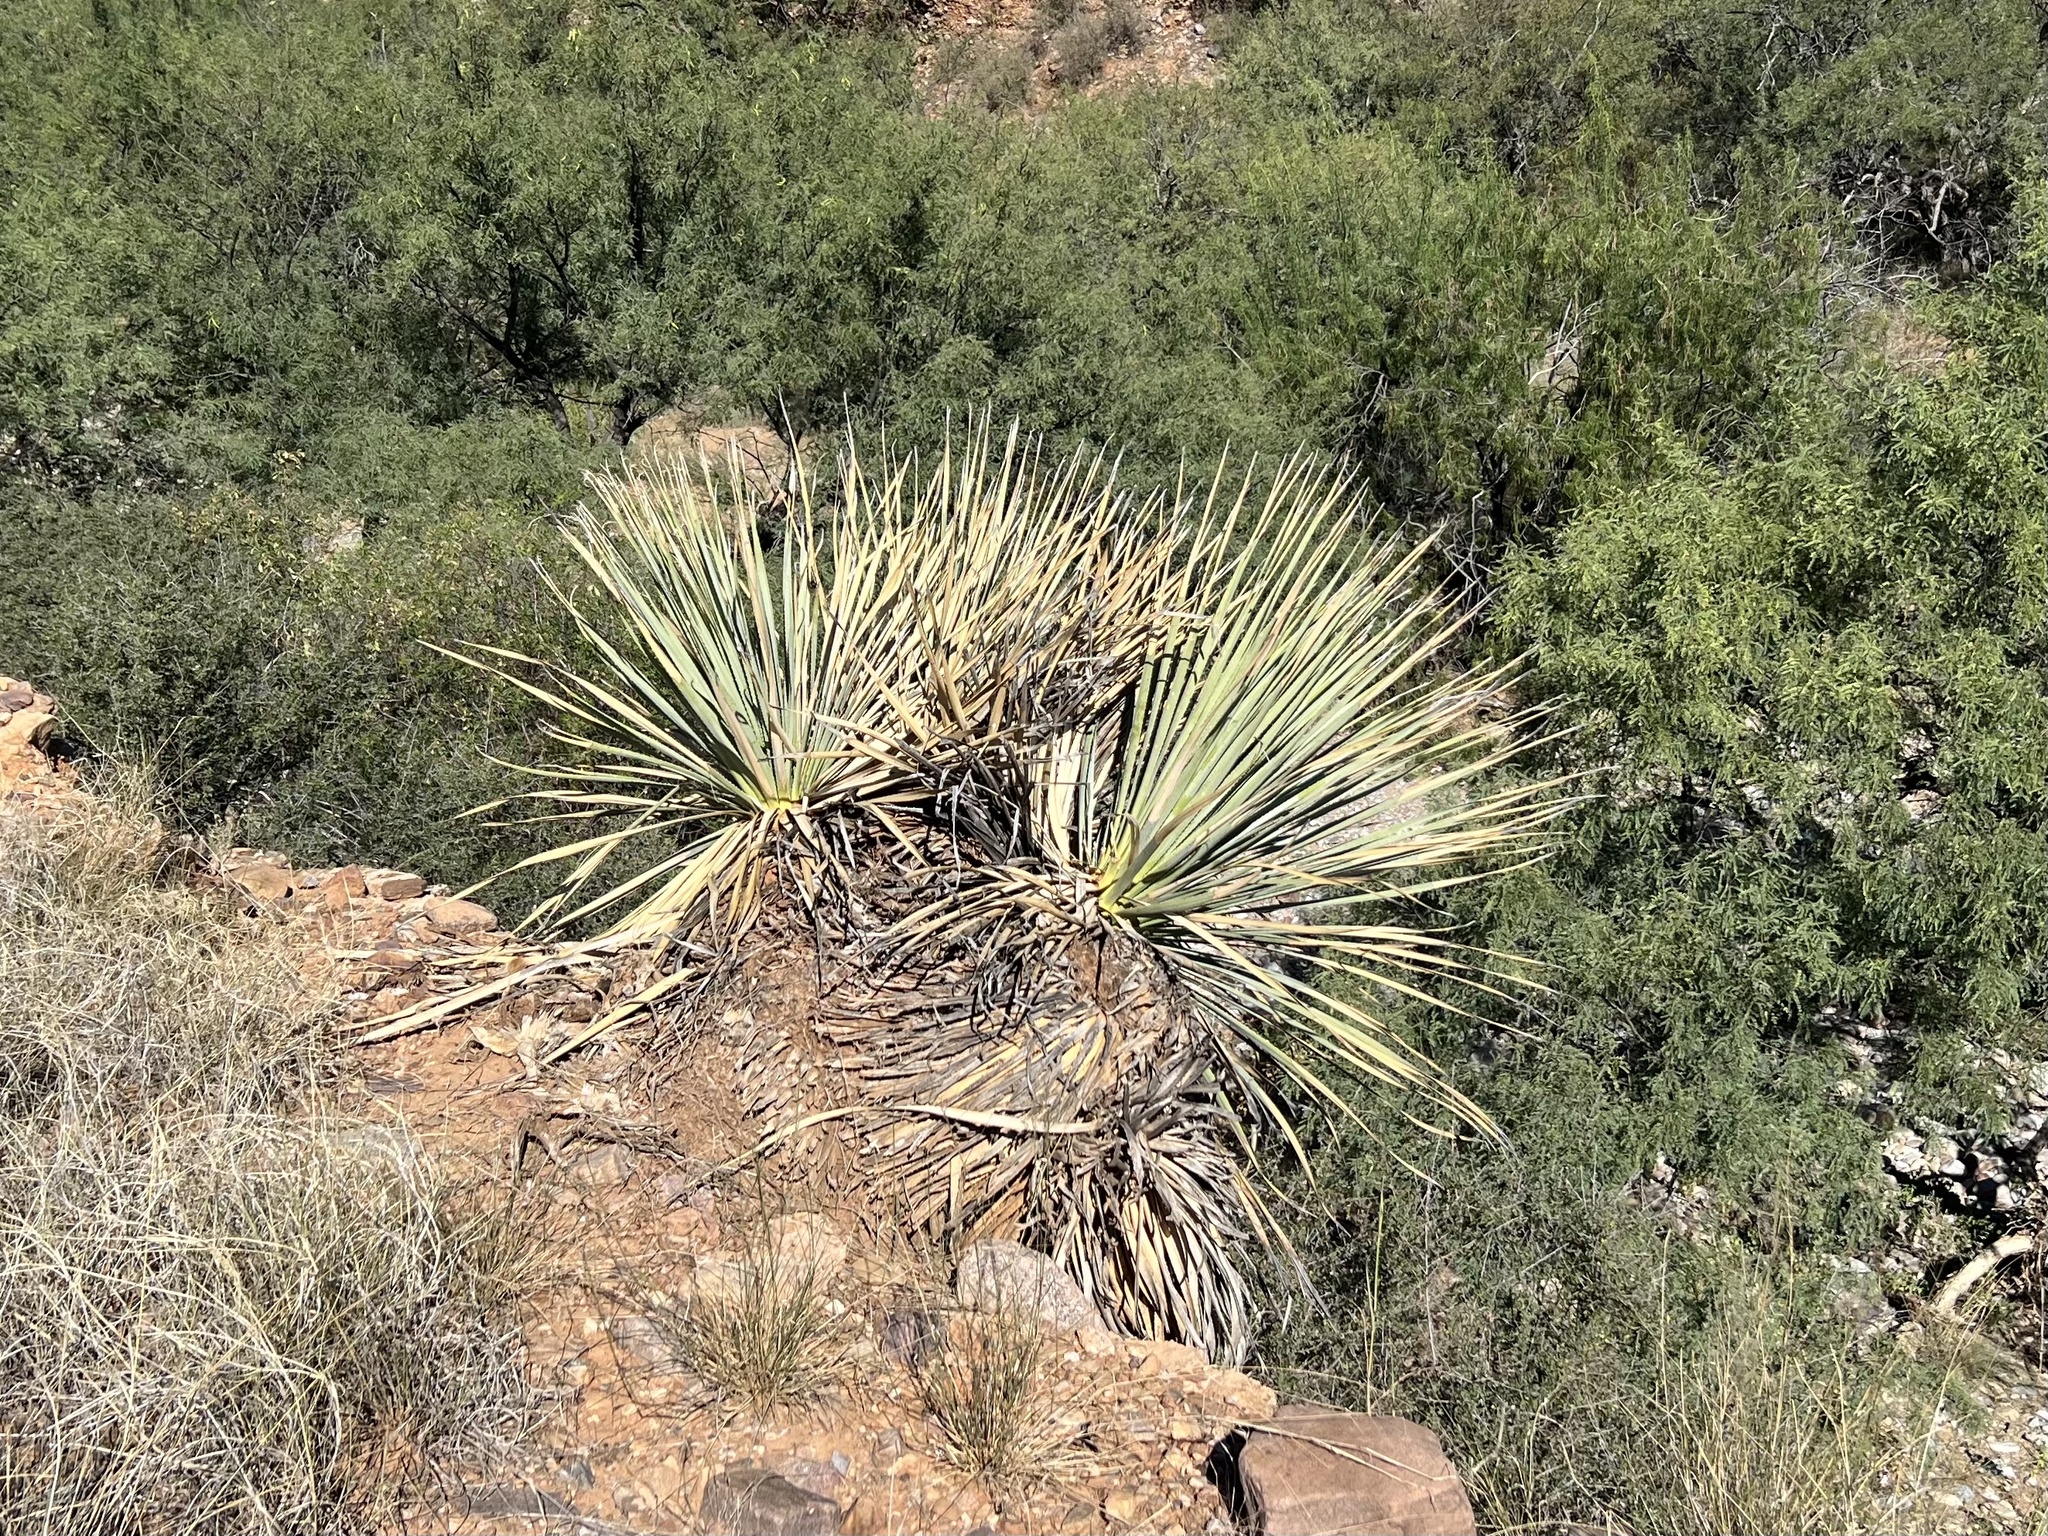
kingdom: Plantae
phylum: Tracheophyta
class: Liliopsida
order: Asparagales
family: Asparagaceae
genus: Dasylirion
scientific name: Dasylirion wheeleri
